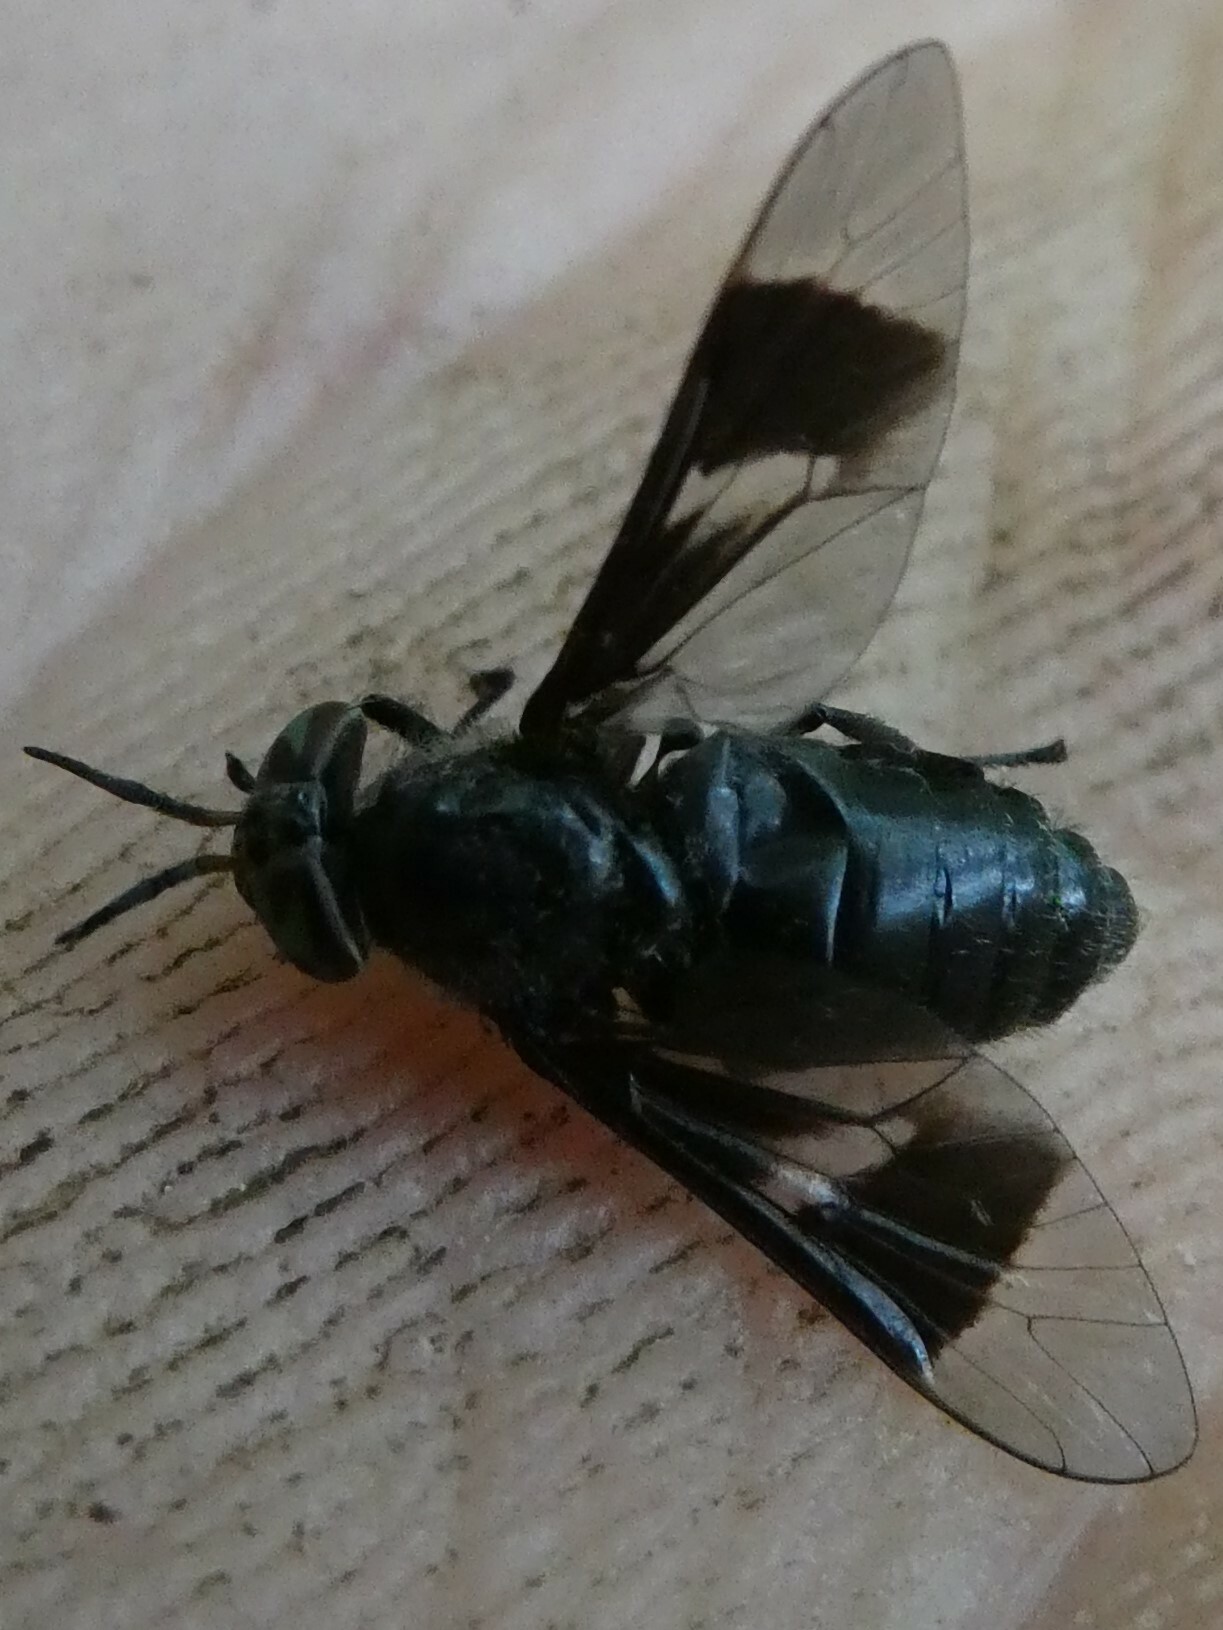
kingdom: Animalia
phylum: Arthropoda
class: Insecta
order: Diptera
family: Tabanidae
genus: Chrysops
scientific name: Chrysops carbonarius
